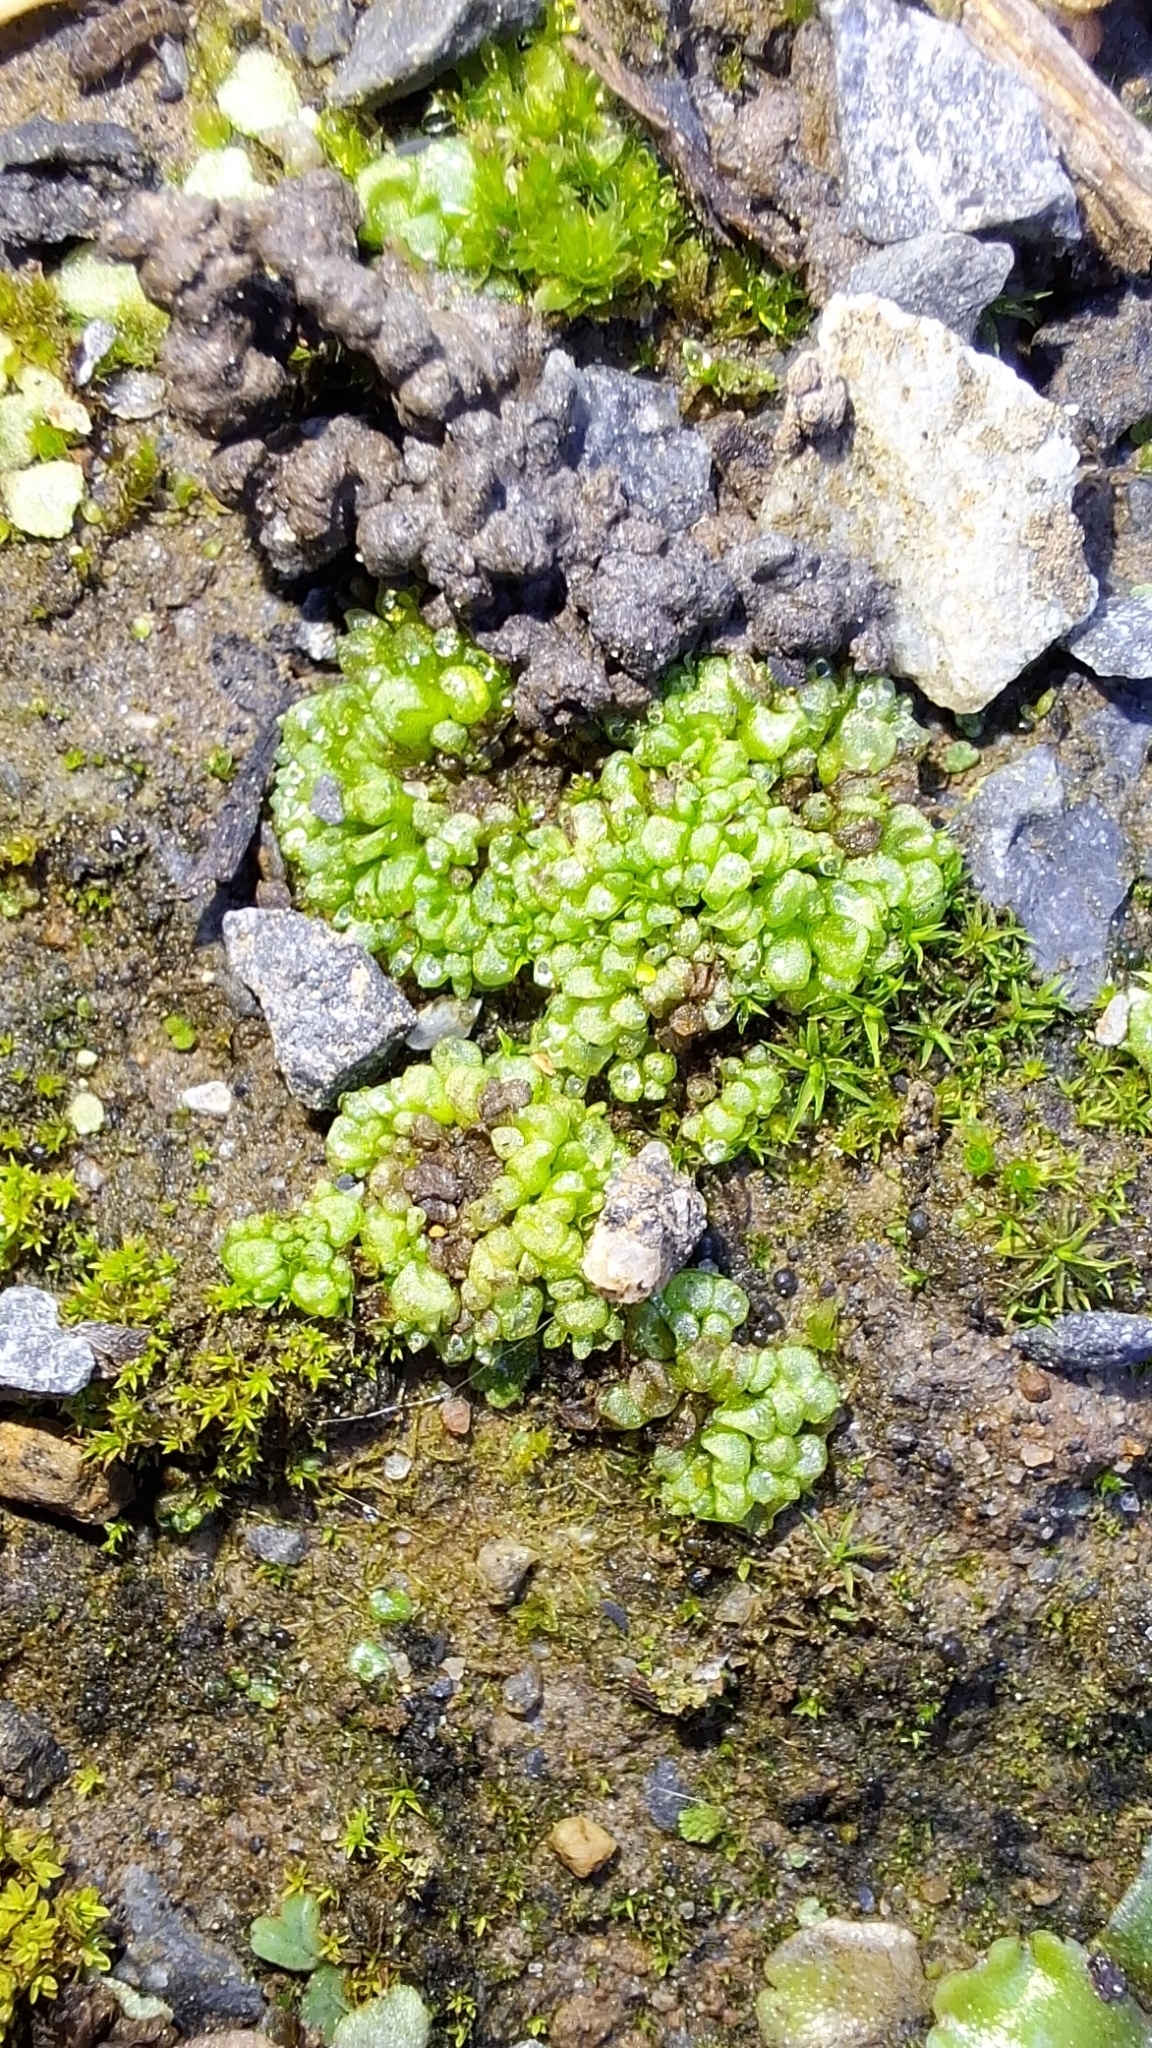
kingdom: Plantae
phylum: Marchantiophyta
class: Marchantiopsida
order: Sphaerocarpales
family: Sphaerocarpaceae
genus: Sphaerocarpos
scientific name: Sphaerocarpos texanus
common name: Texas balloonwort
